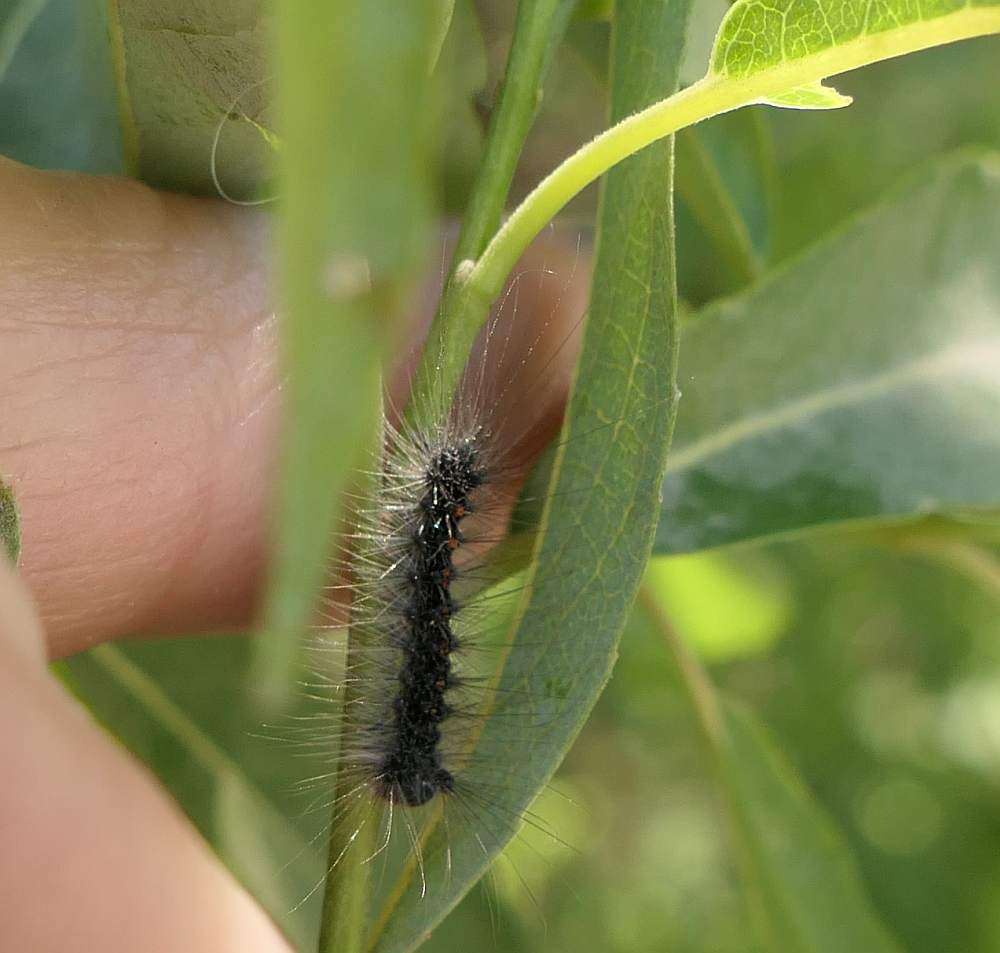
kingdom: Animalia
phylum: Arthropoda
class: Insecta
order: Lepidoptera
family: Erebidae
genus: Lymantria
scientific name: Lymantria dispar
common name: Gypsy moth
